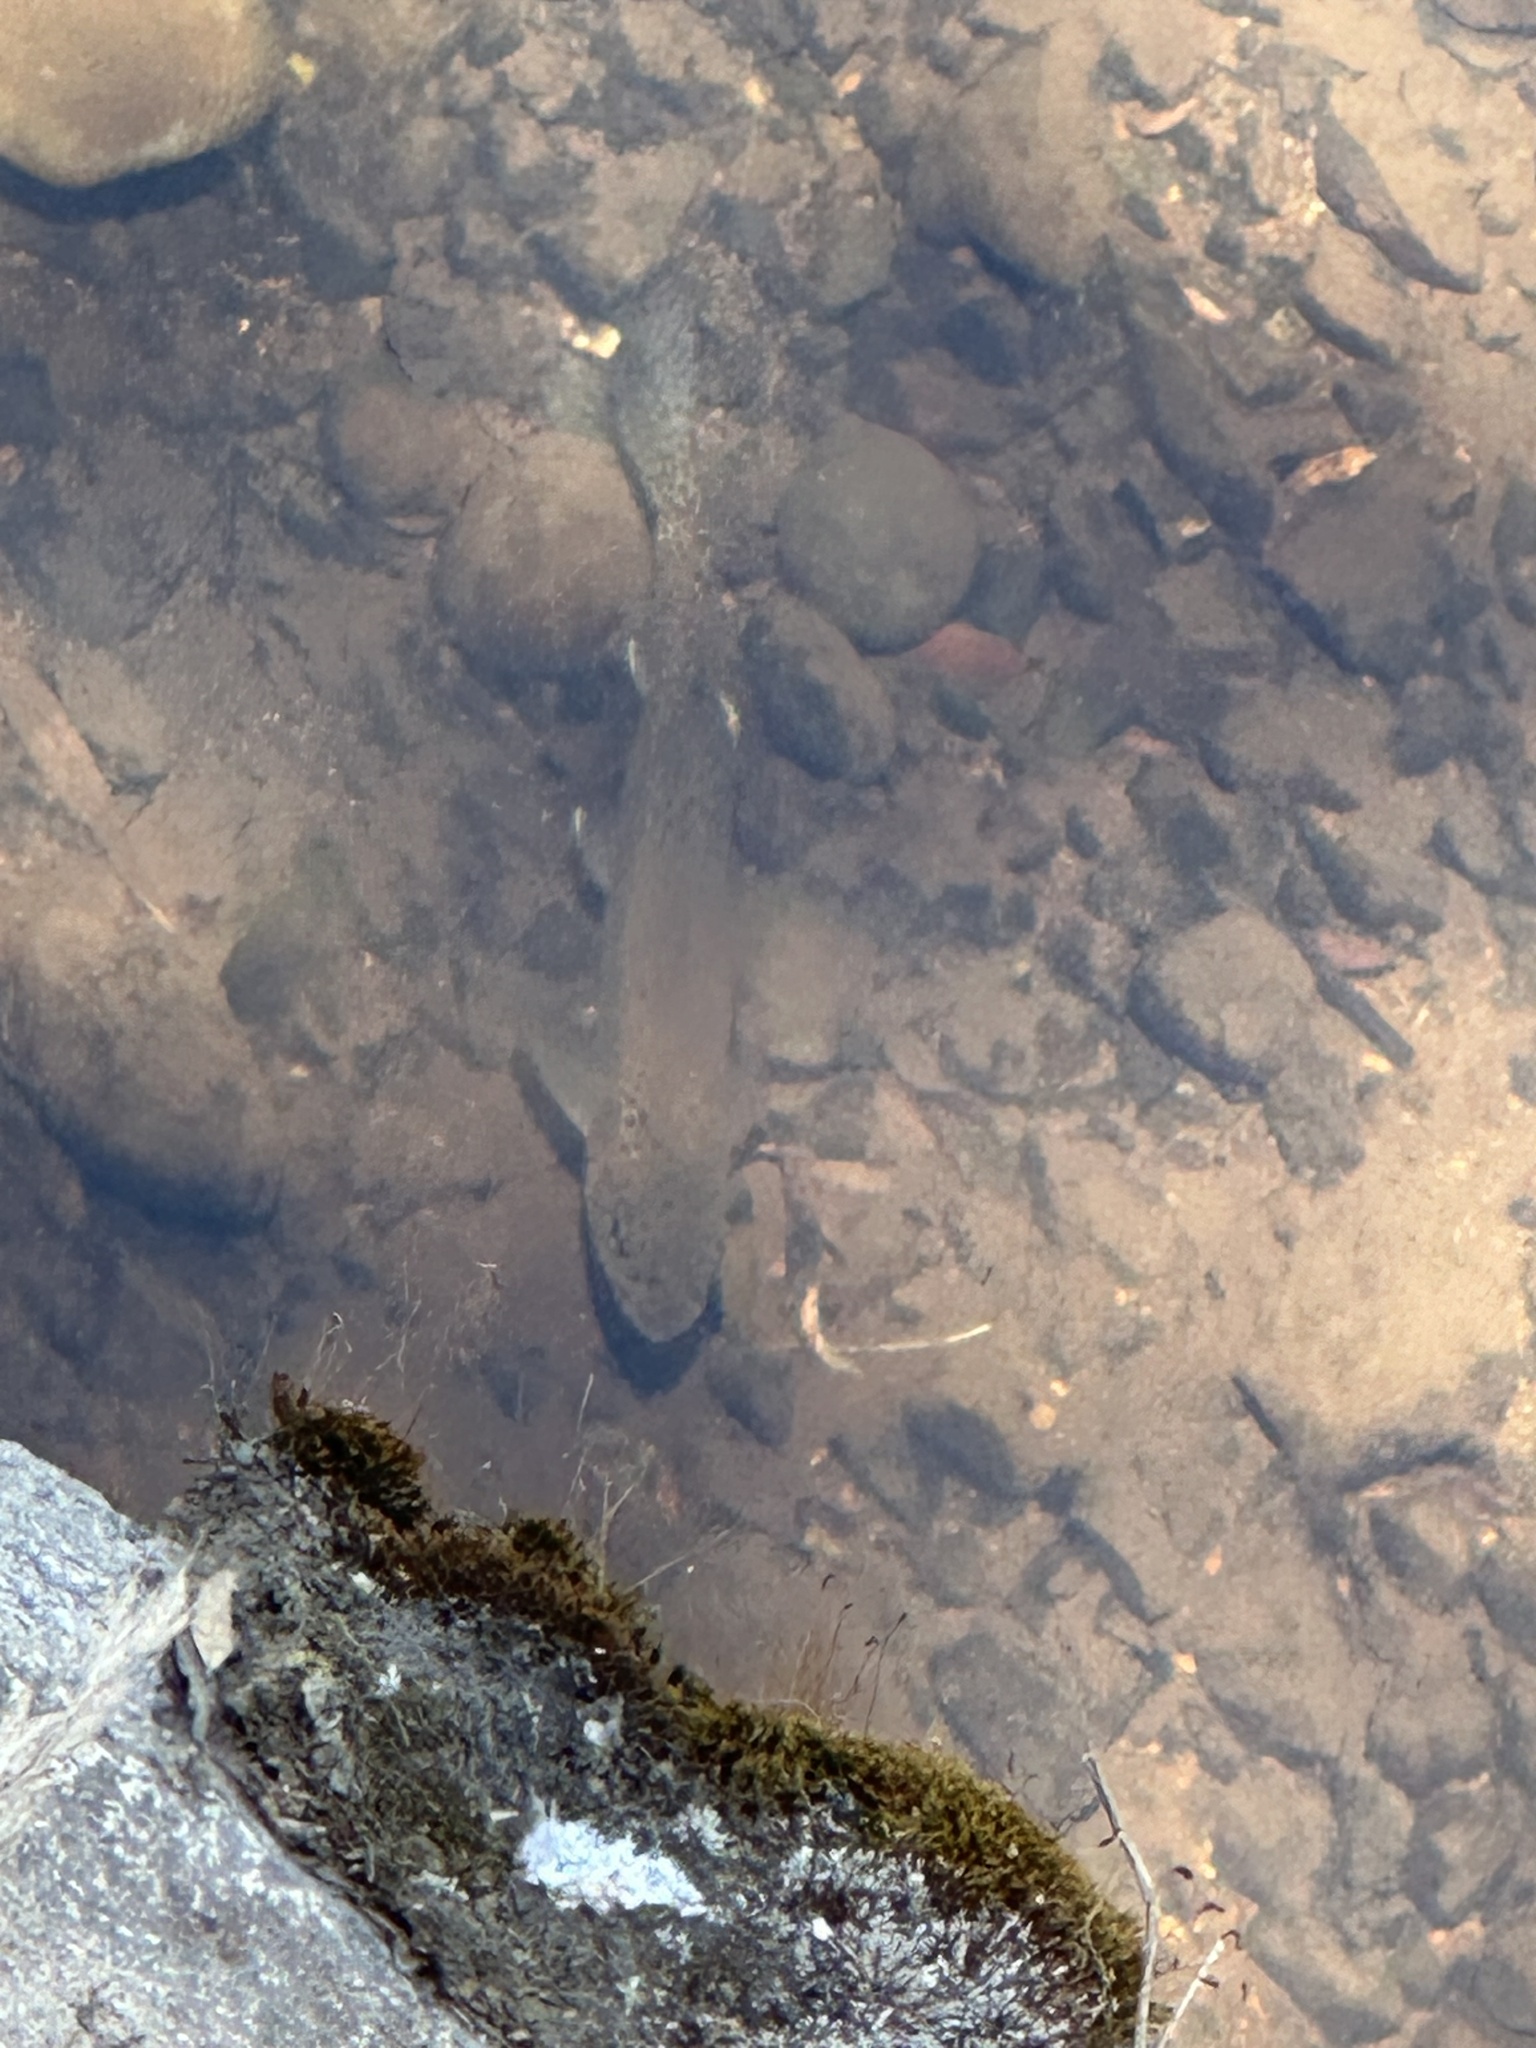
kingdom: Animalia
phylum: Chordata
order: Salmoniformes
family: Salmonidae
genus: Oncorhynchus
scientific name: Oncorhynchus mykiss
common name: Rainbow trout
